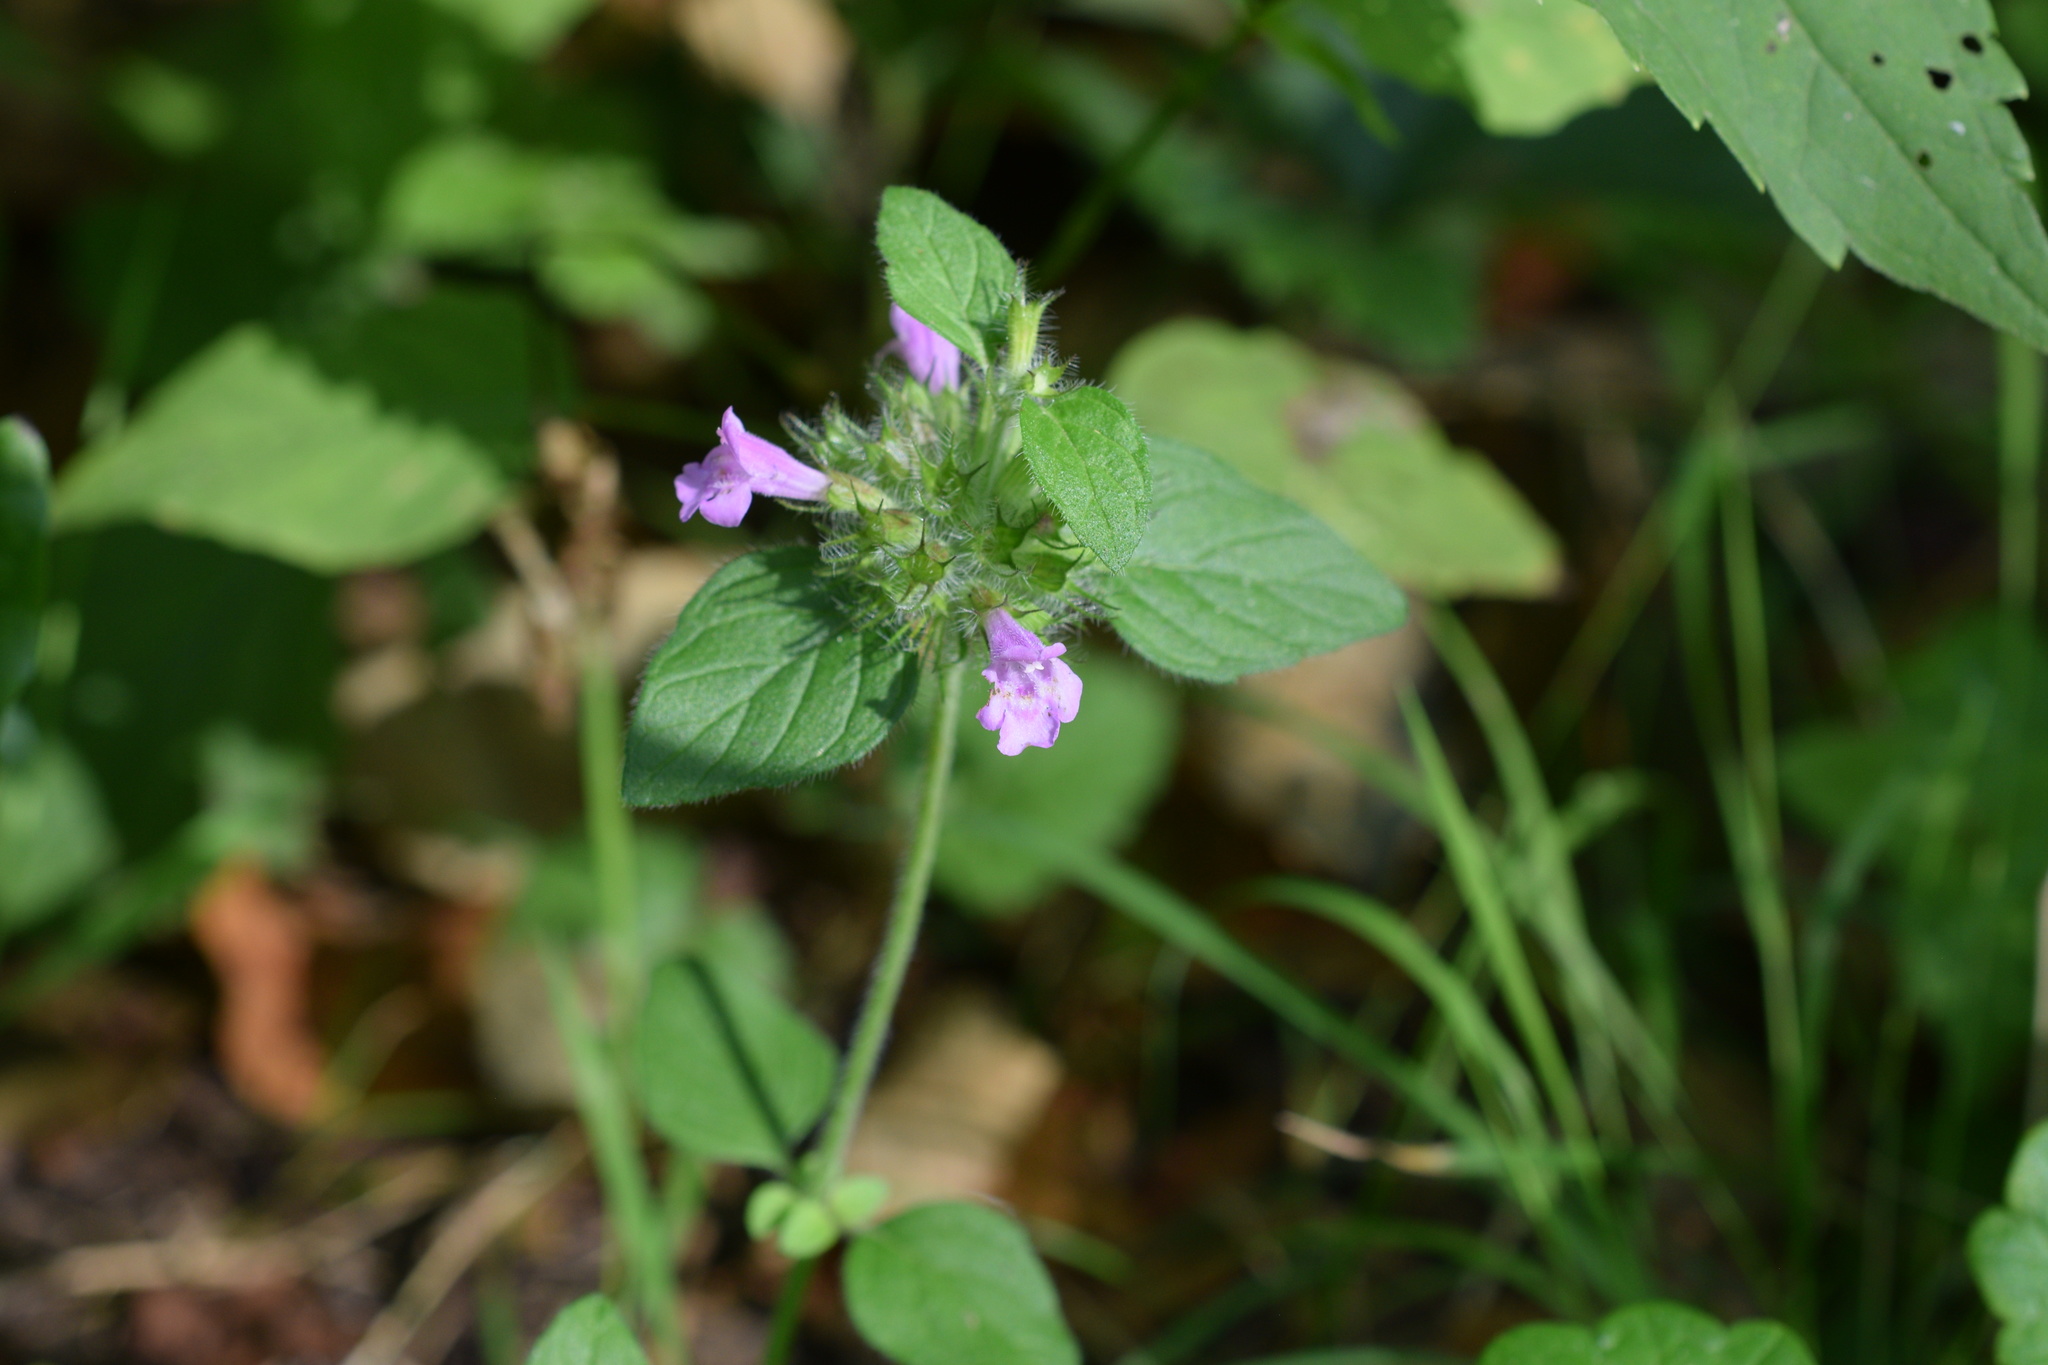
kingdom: Plantae
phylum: Tracheophyta
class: Magnoliopsida
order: Lamiales
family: Lamiaceae
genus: Clinopodium
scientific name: Clinopodium vulgare
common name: Wild basil
